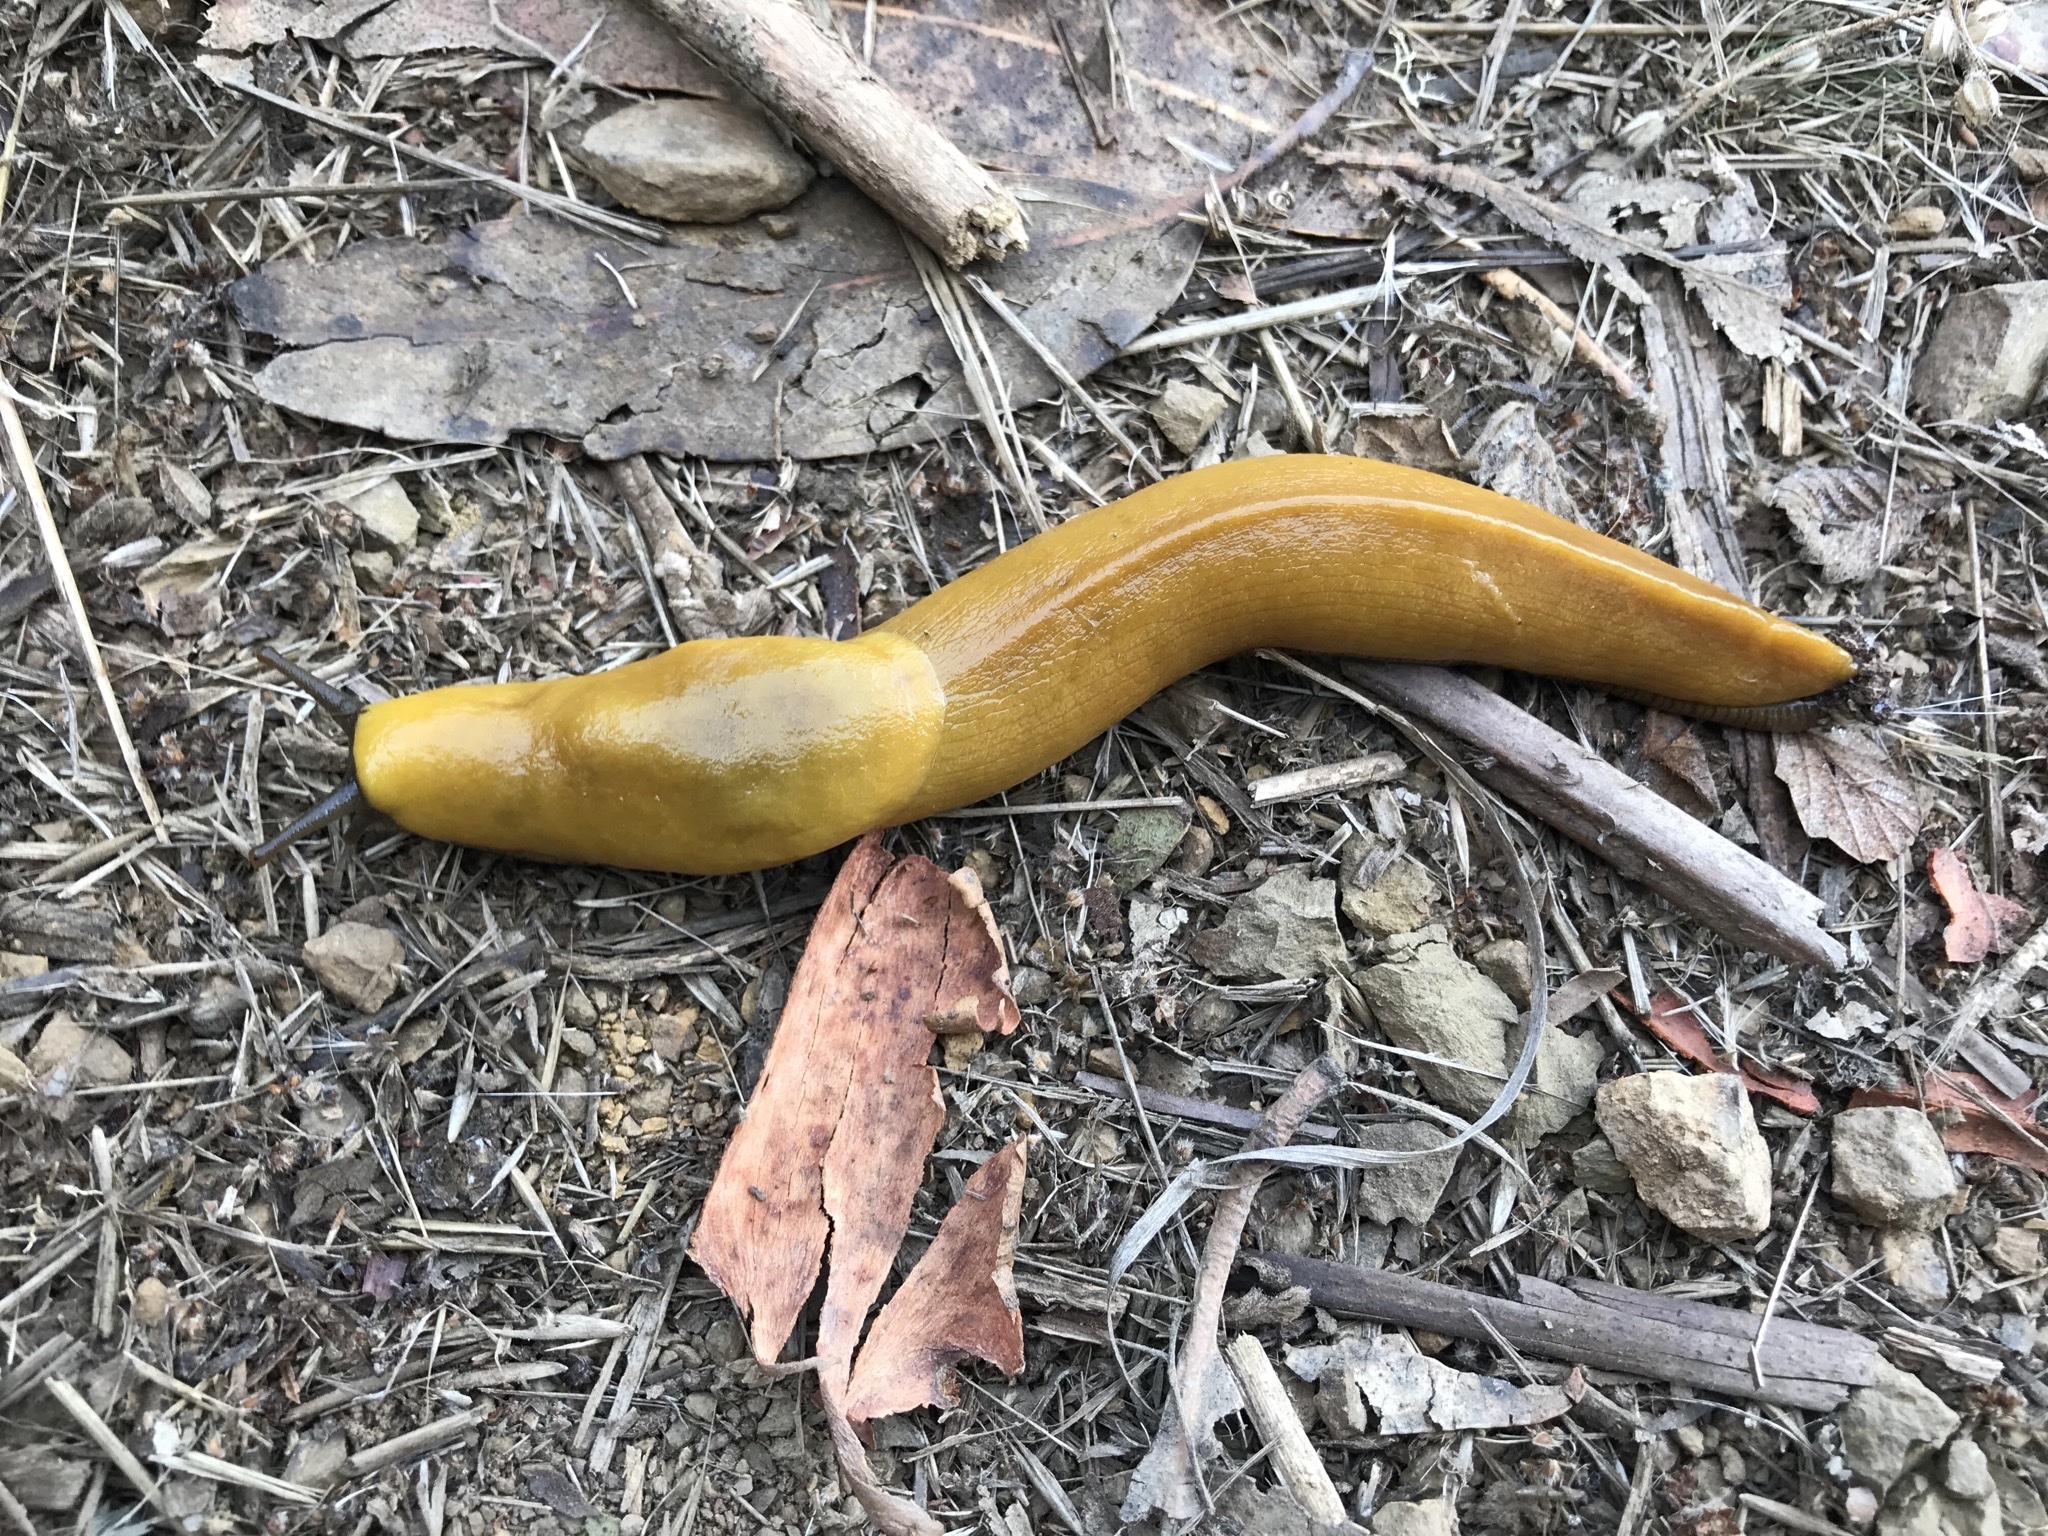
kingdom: Animalia
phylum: Mollusca
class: Gastropoda
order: Stylommatophora
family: Ariolimacidae
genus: Ariolimax
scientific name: Ariolimax brachyphallus
